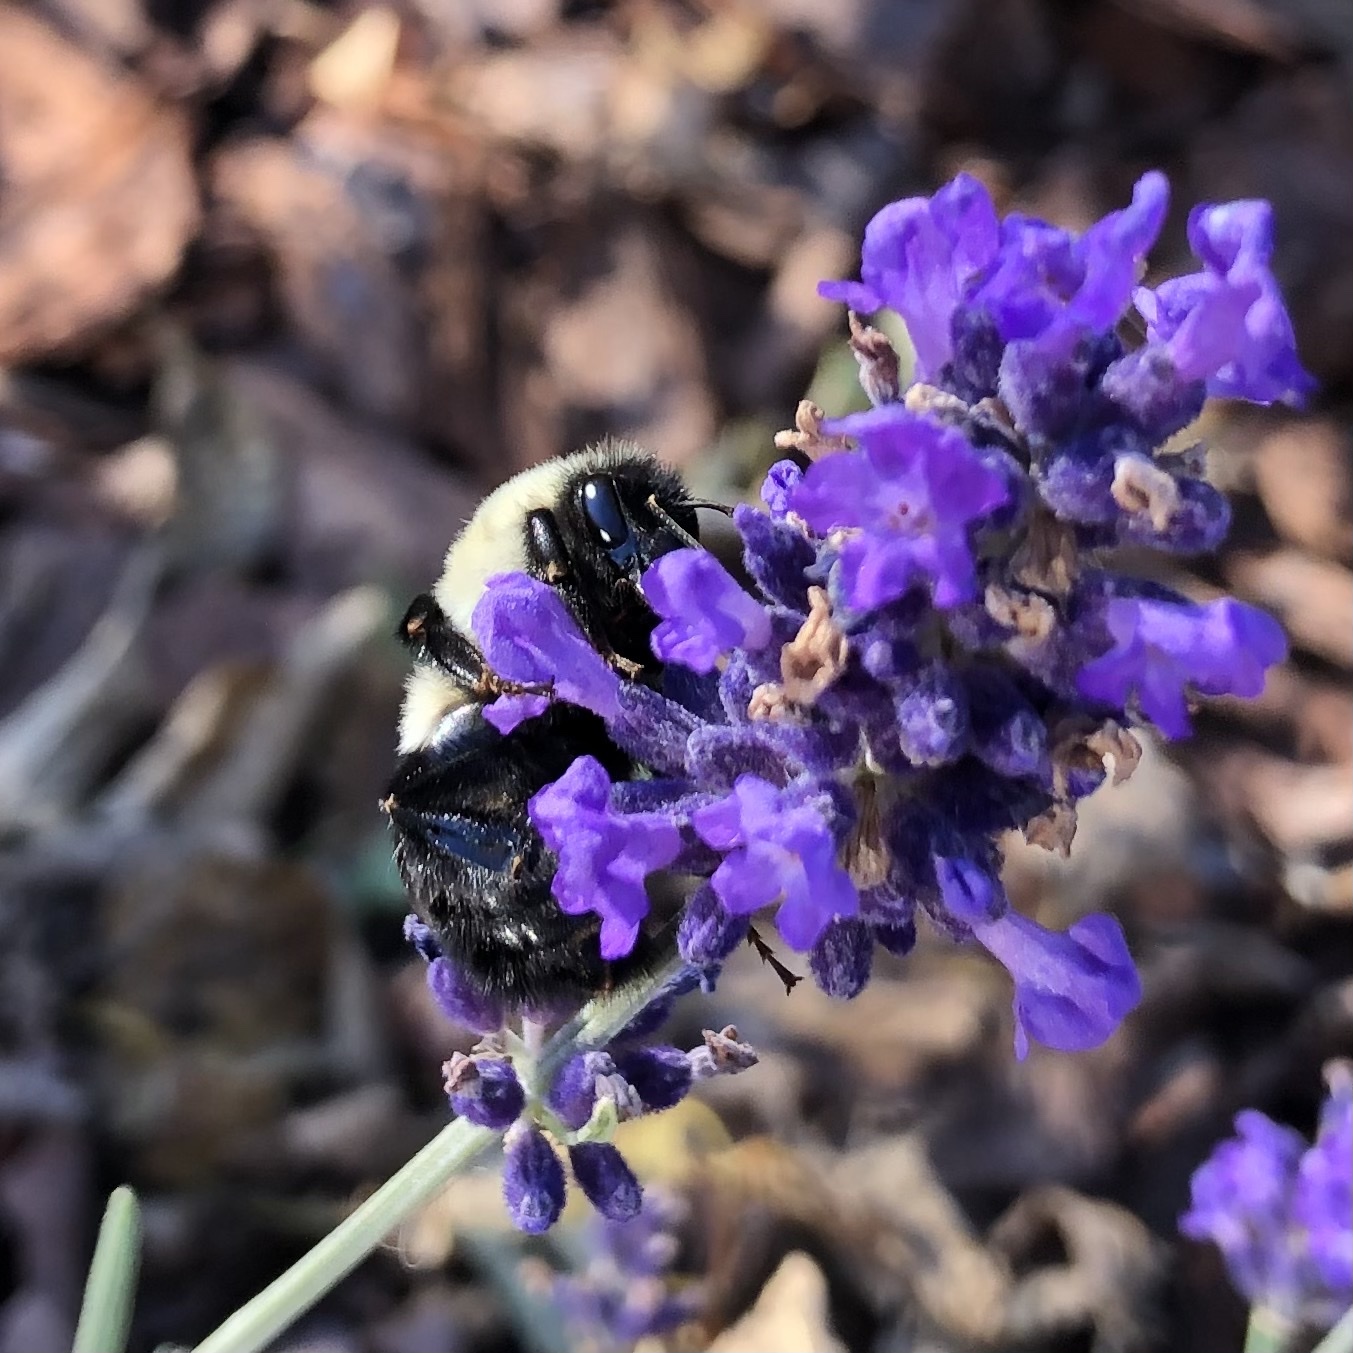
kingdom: Animalia
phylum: Arthropoda
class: Insecta
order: Hymenoptera
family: Apidae
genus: Bombus
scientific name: Bombus impatiens
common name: Common eastern bumble bee
